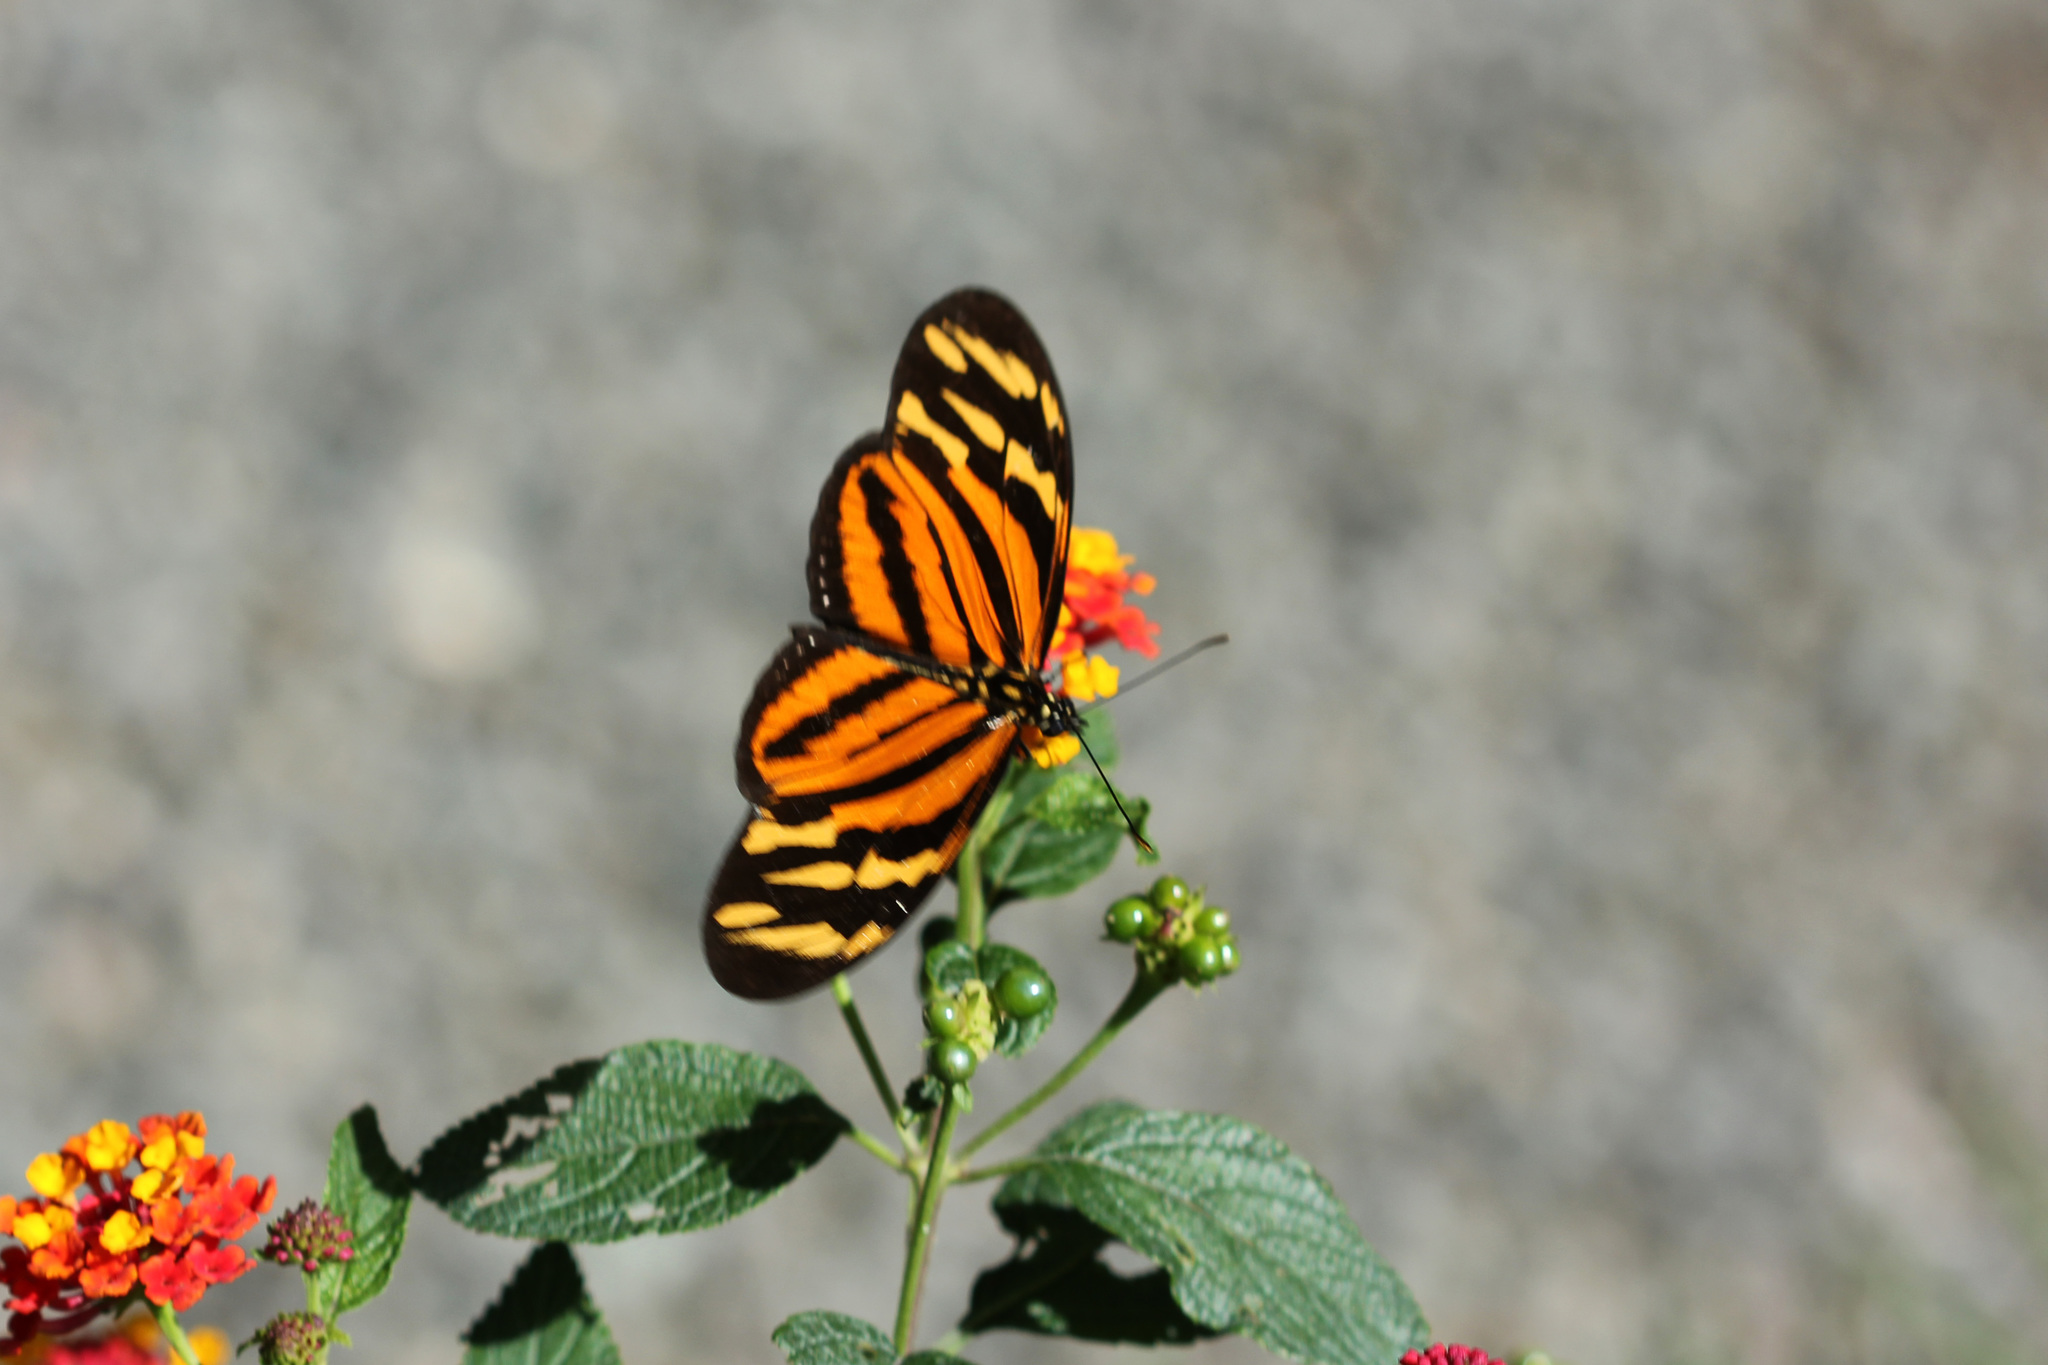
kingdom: Animalia
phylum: Arthropoda
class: Insecta
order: Lepidoptera
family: Nymphalidae
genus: Eueides
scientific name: Eueides isabella
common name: Isabella's longwing
